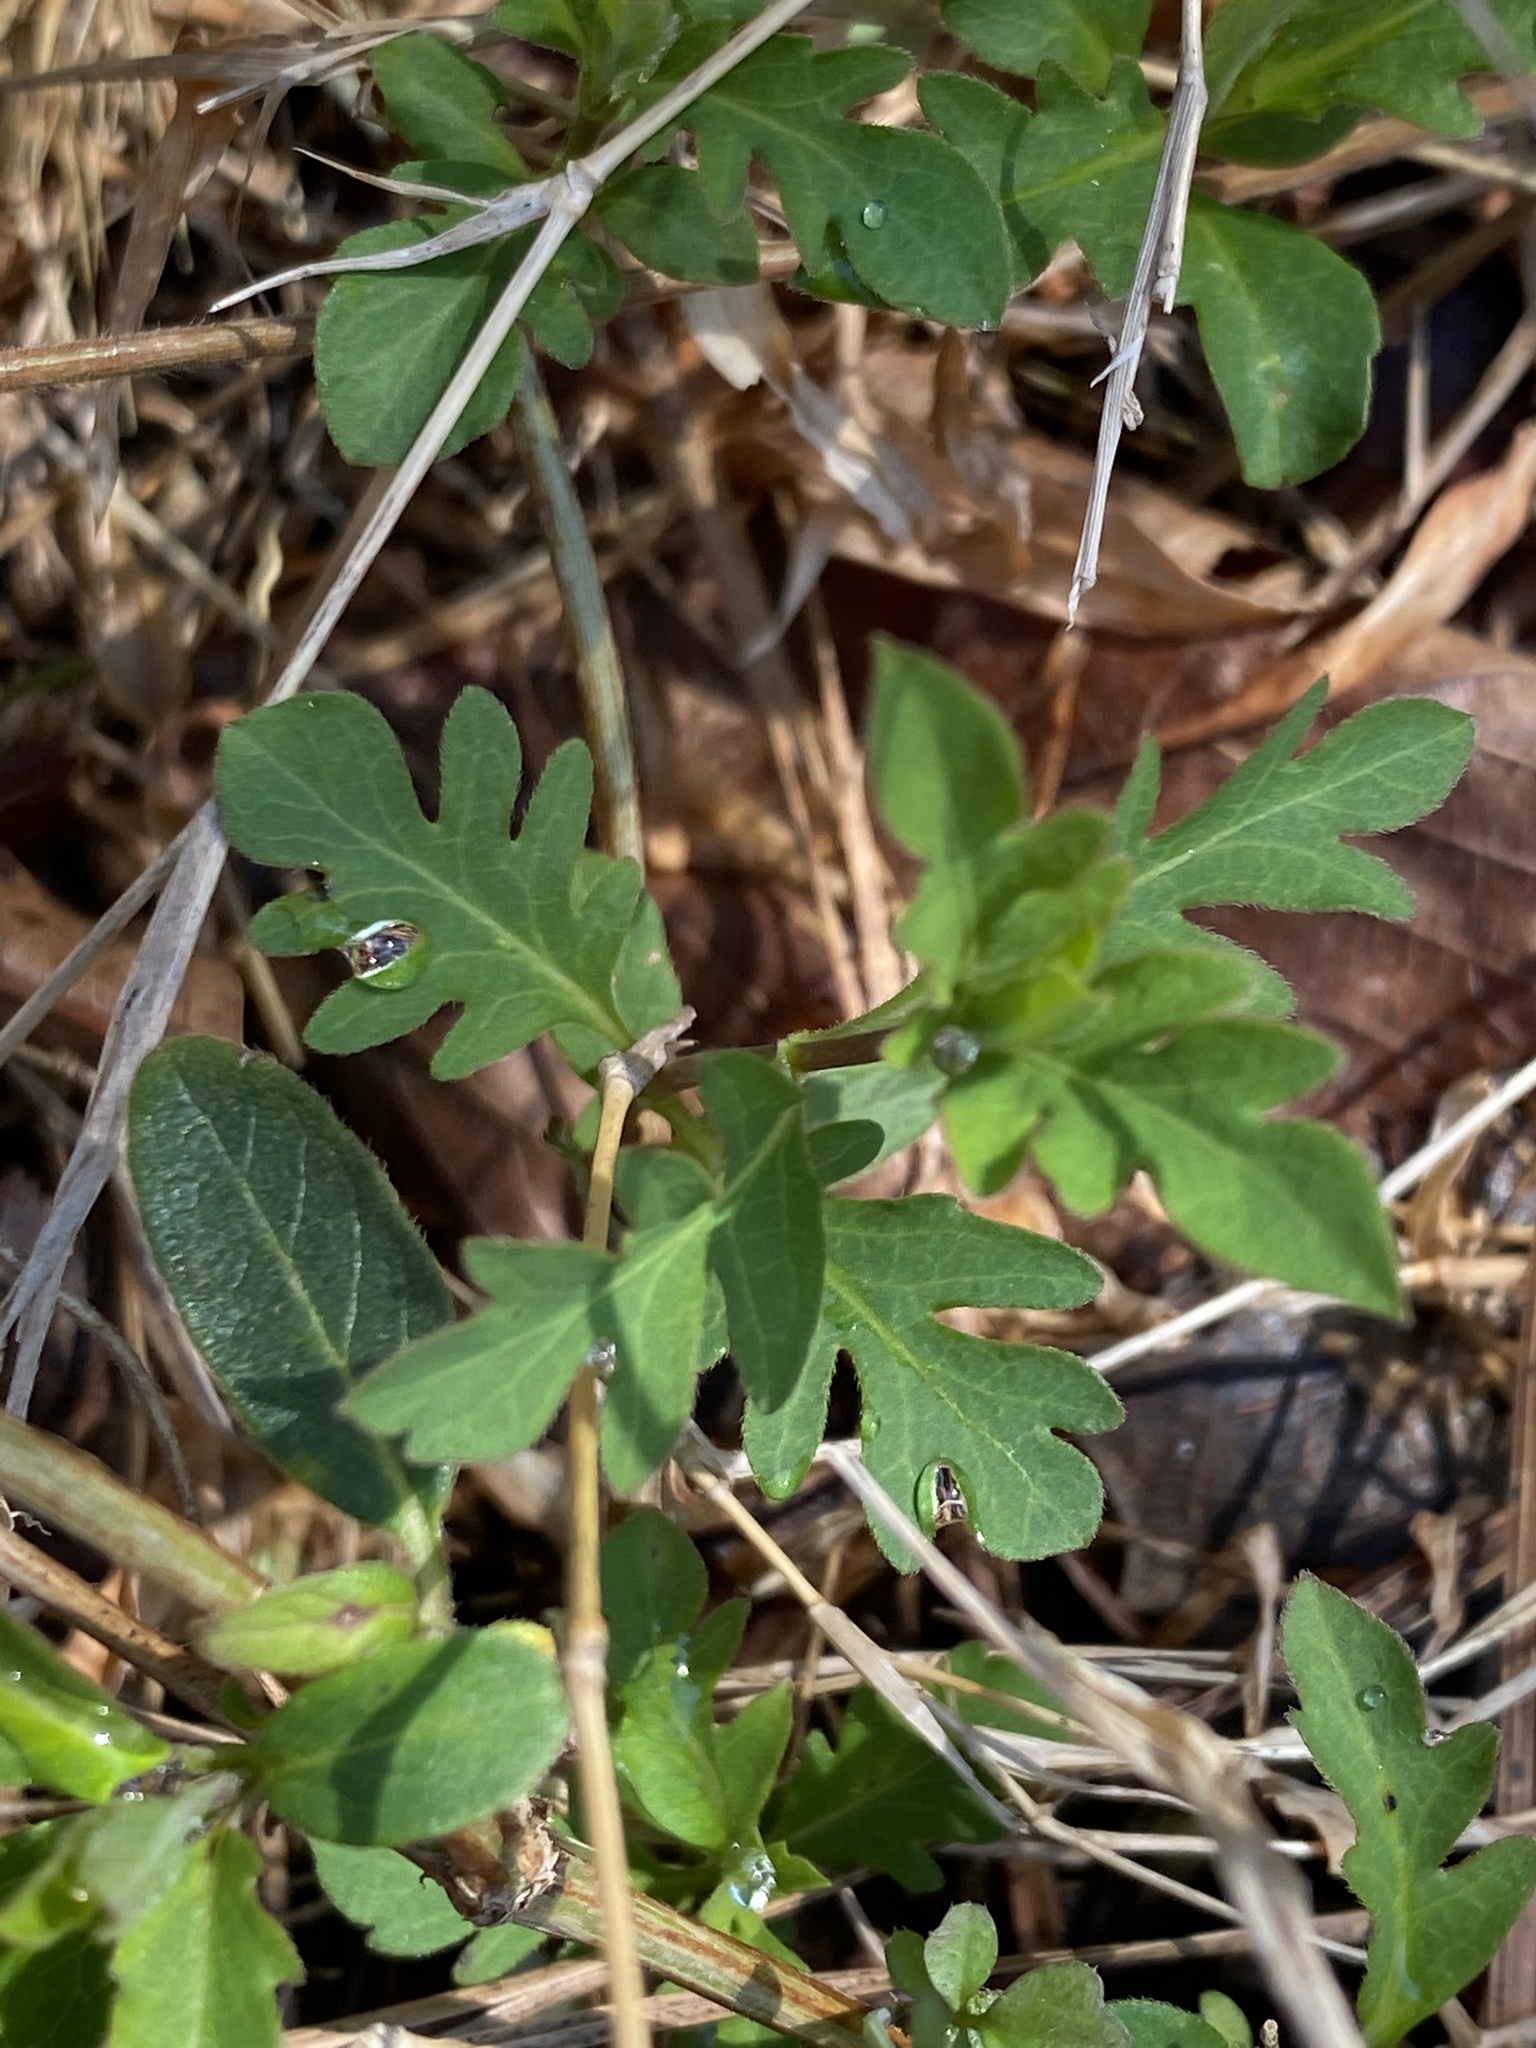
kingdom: Plantae
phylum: Tracheophyta
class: Magnoliopsida
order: Dipsacales
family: Caprifoliaceae
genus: Lonicera
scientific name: Lonicera japonica
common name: Japanese honeysuckle
